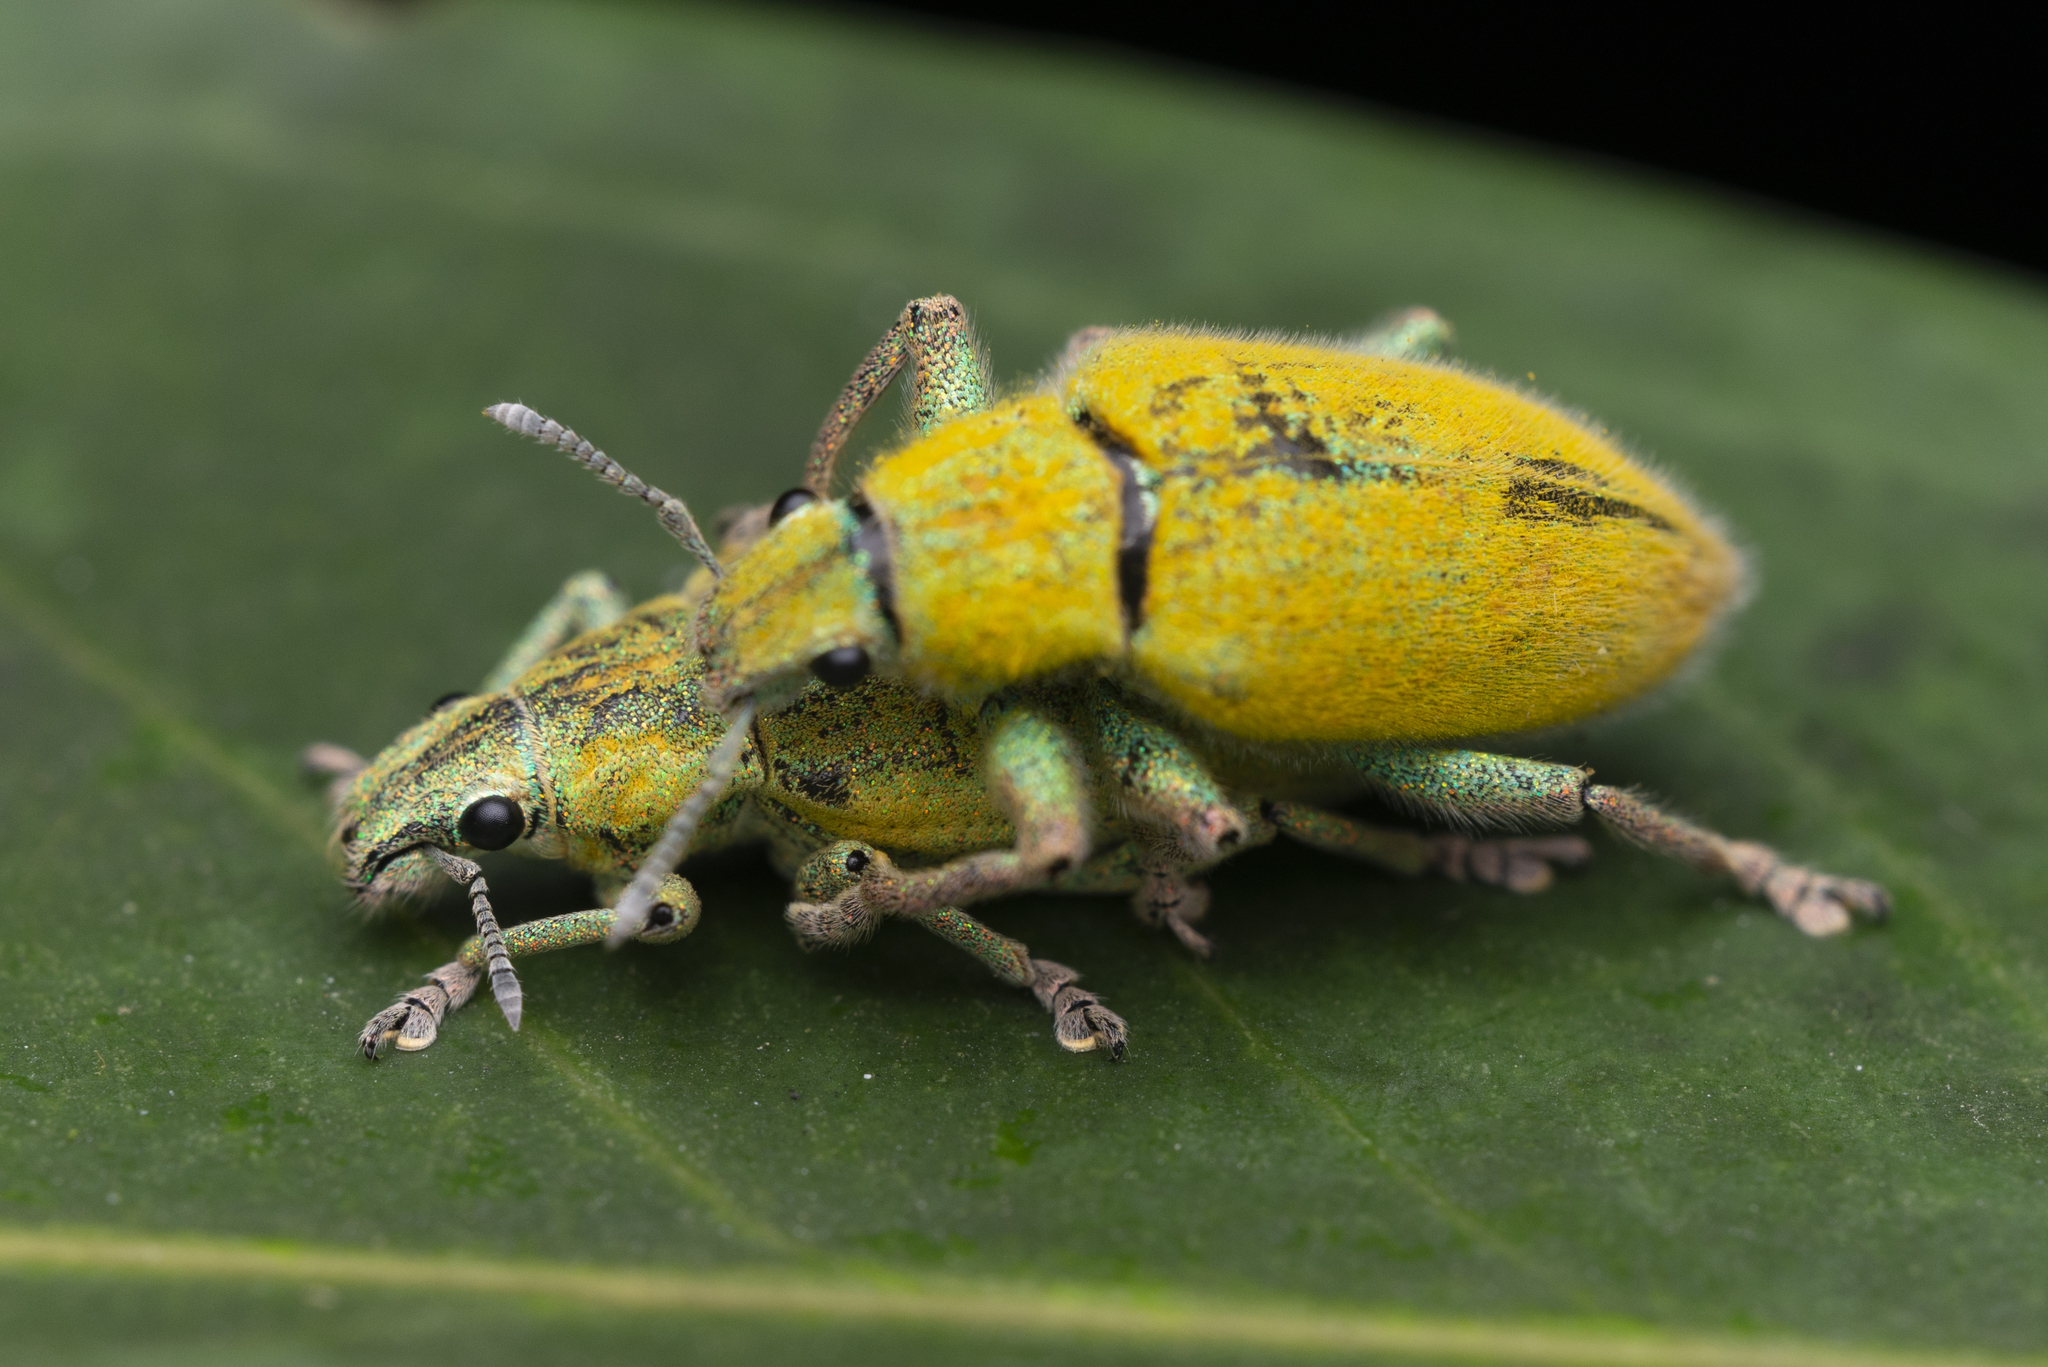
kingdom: Animalia
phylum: Arthropoda
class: Insecta
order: Coleoptera
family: Curculionidae
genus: Hypomeces
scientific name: Hypomeces pulviger
